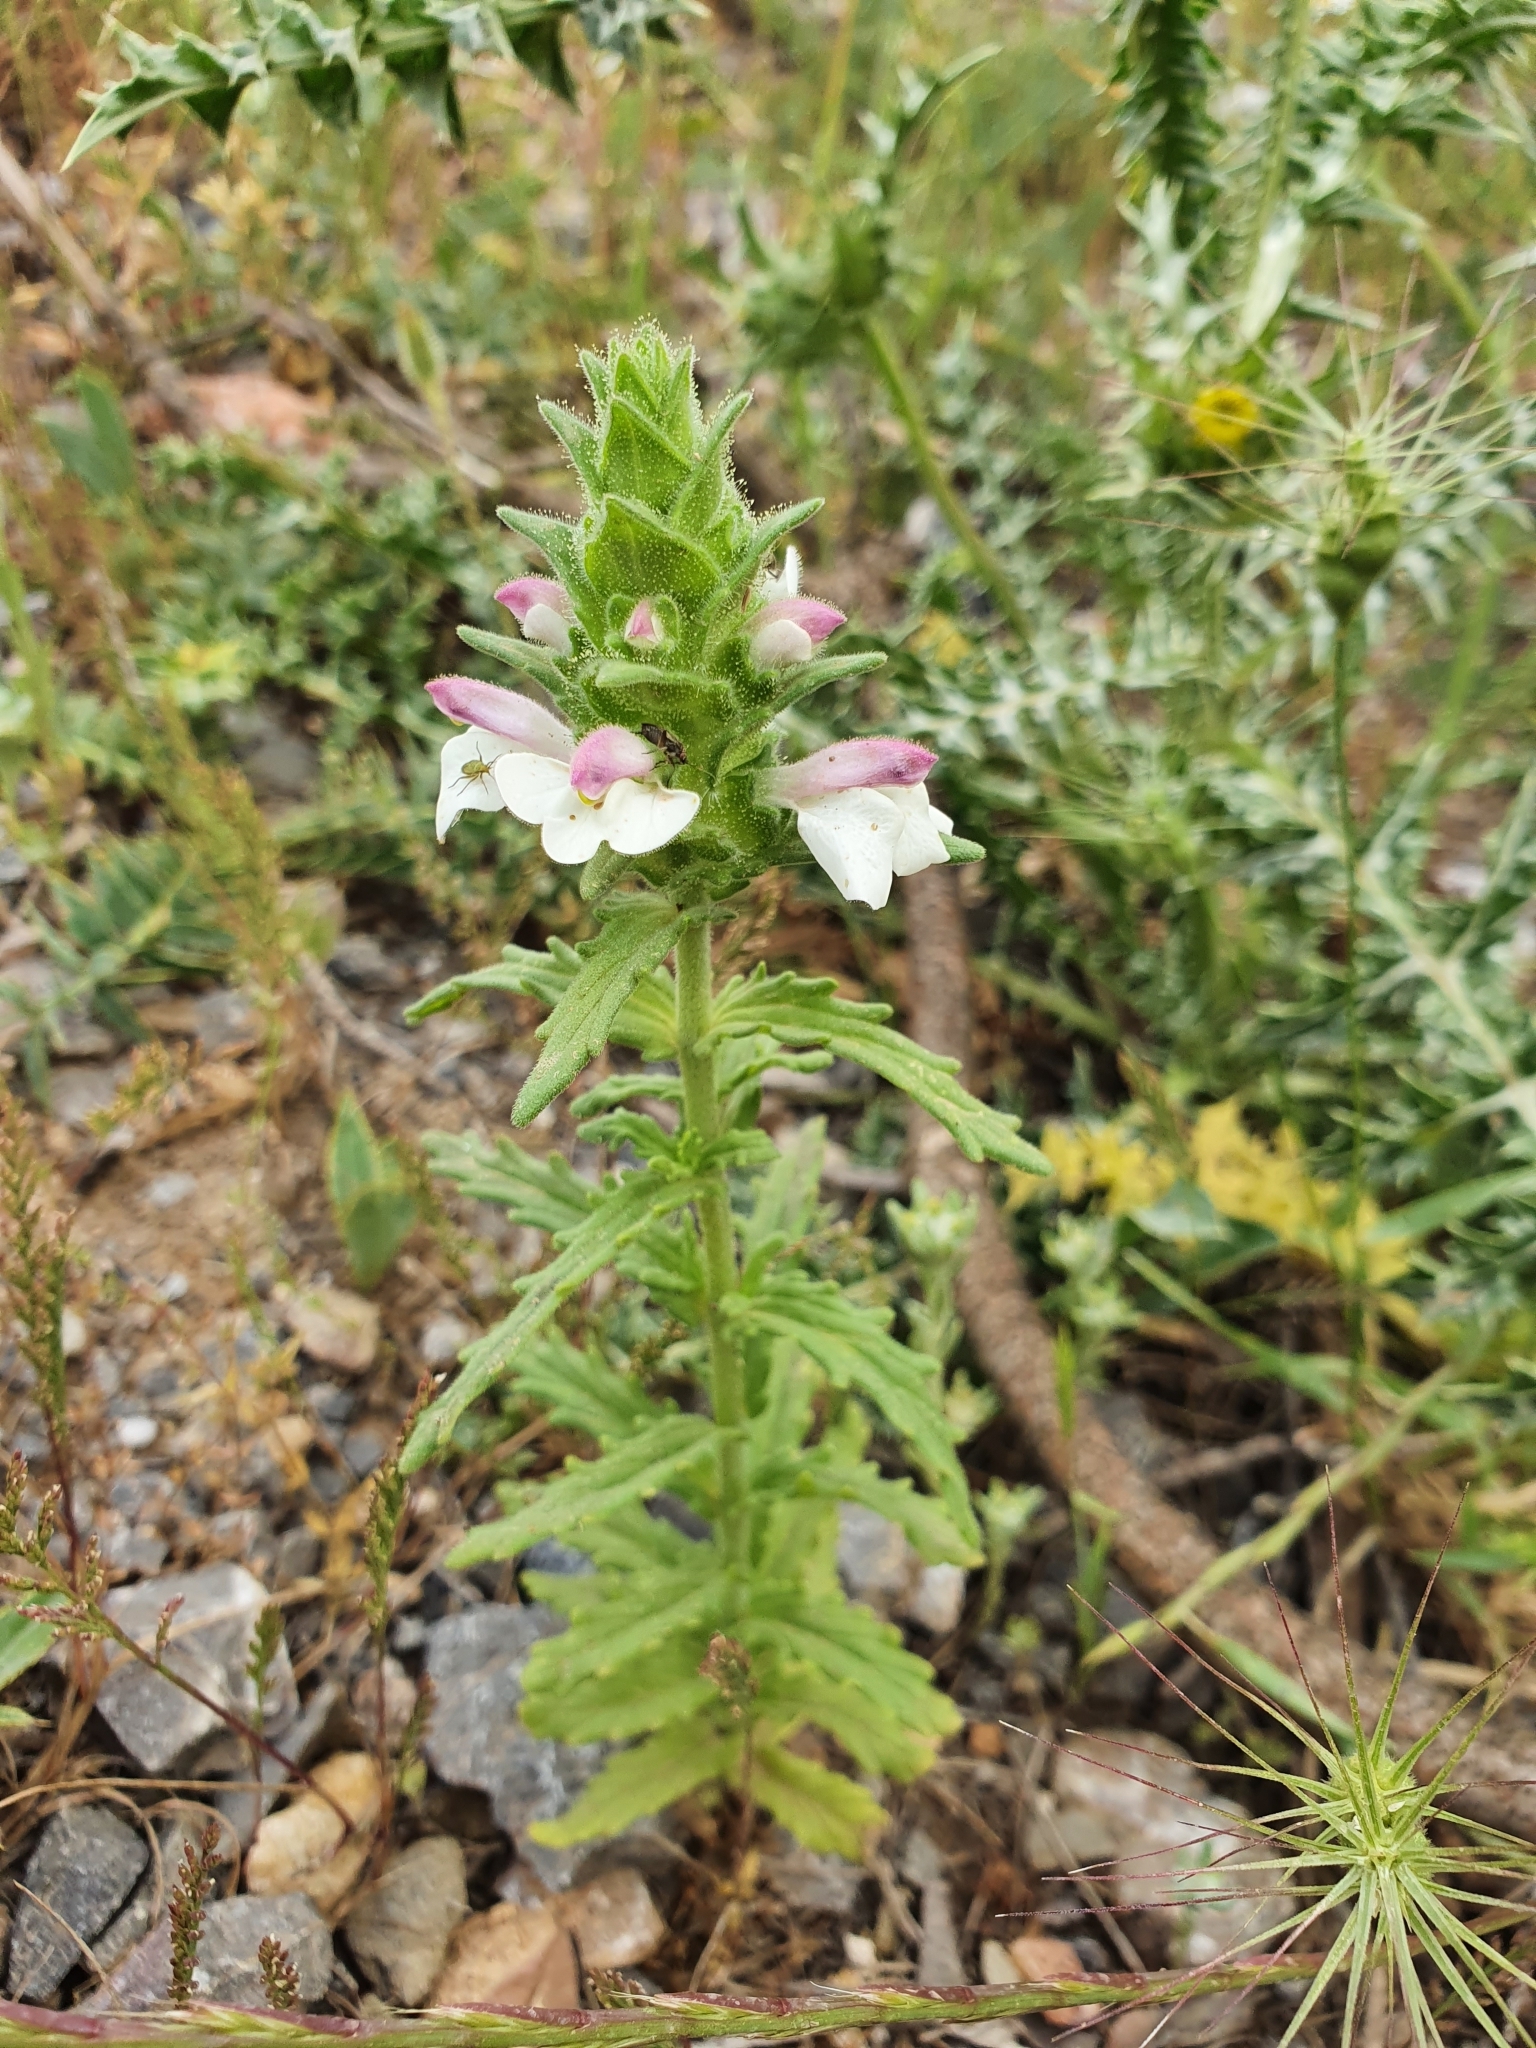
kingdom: Plantae
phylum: Tracheophyta
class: Magnoliopsida
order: Lamiales
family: Orobanchaceae
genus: Bellardia
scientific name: Bellardia trixago
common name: Mediterranean lineseed
